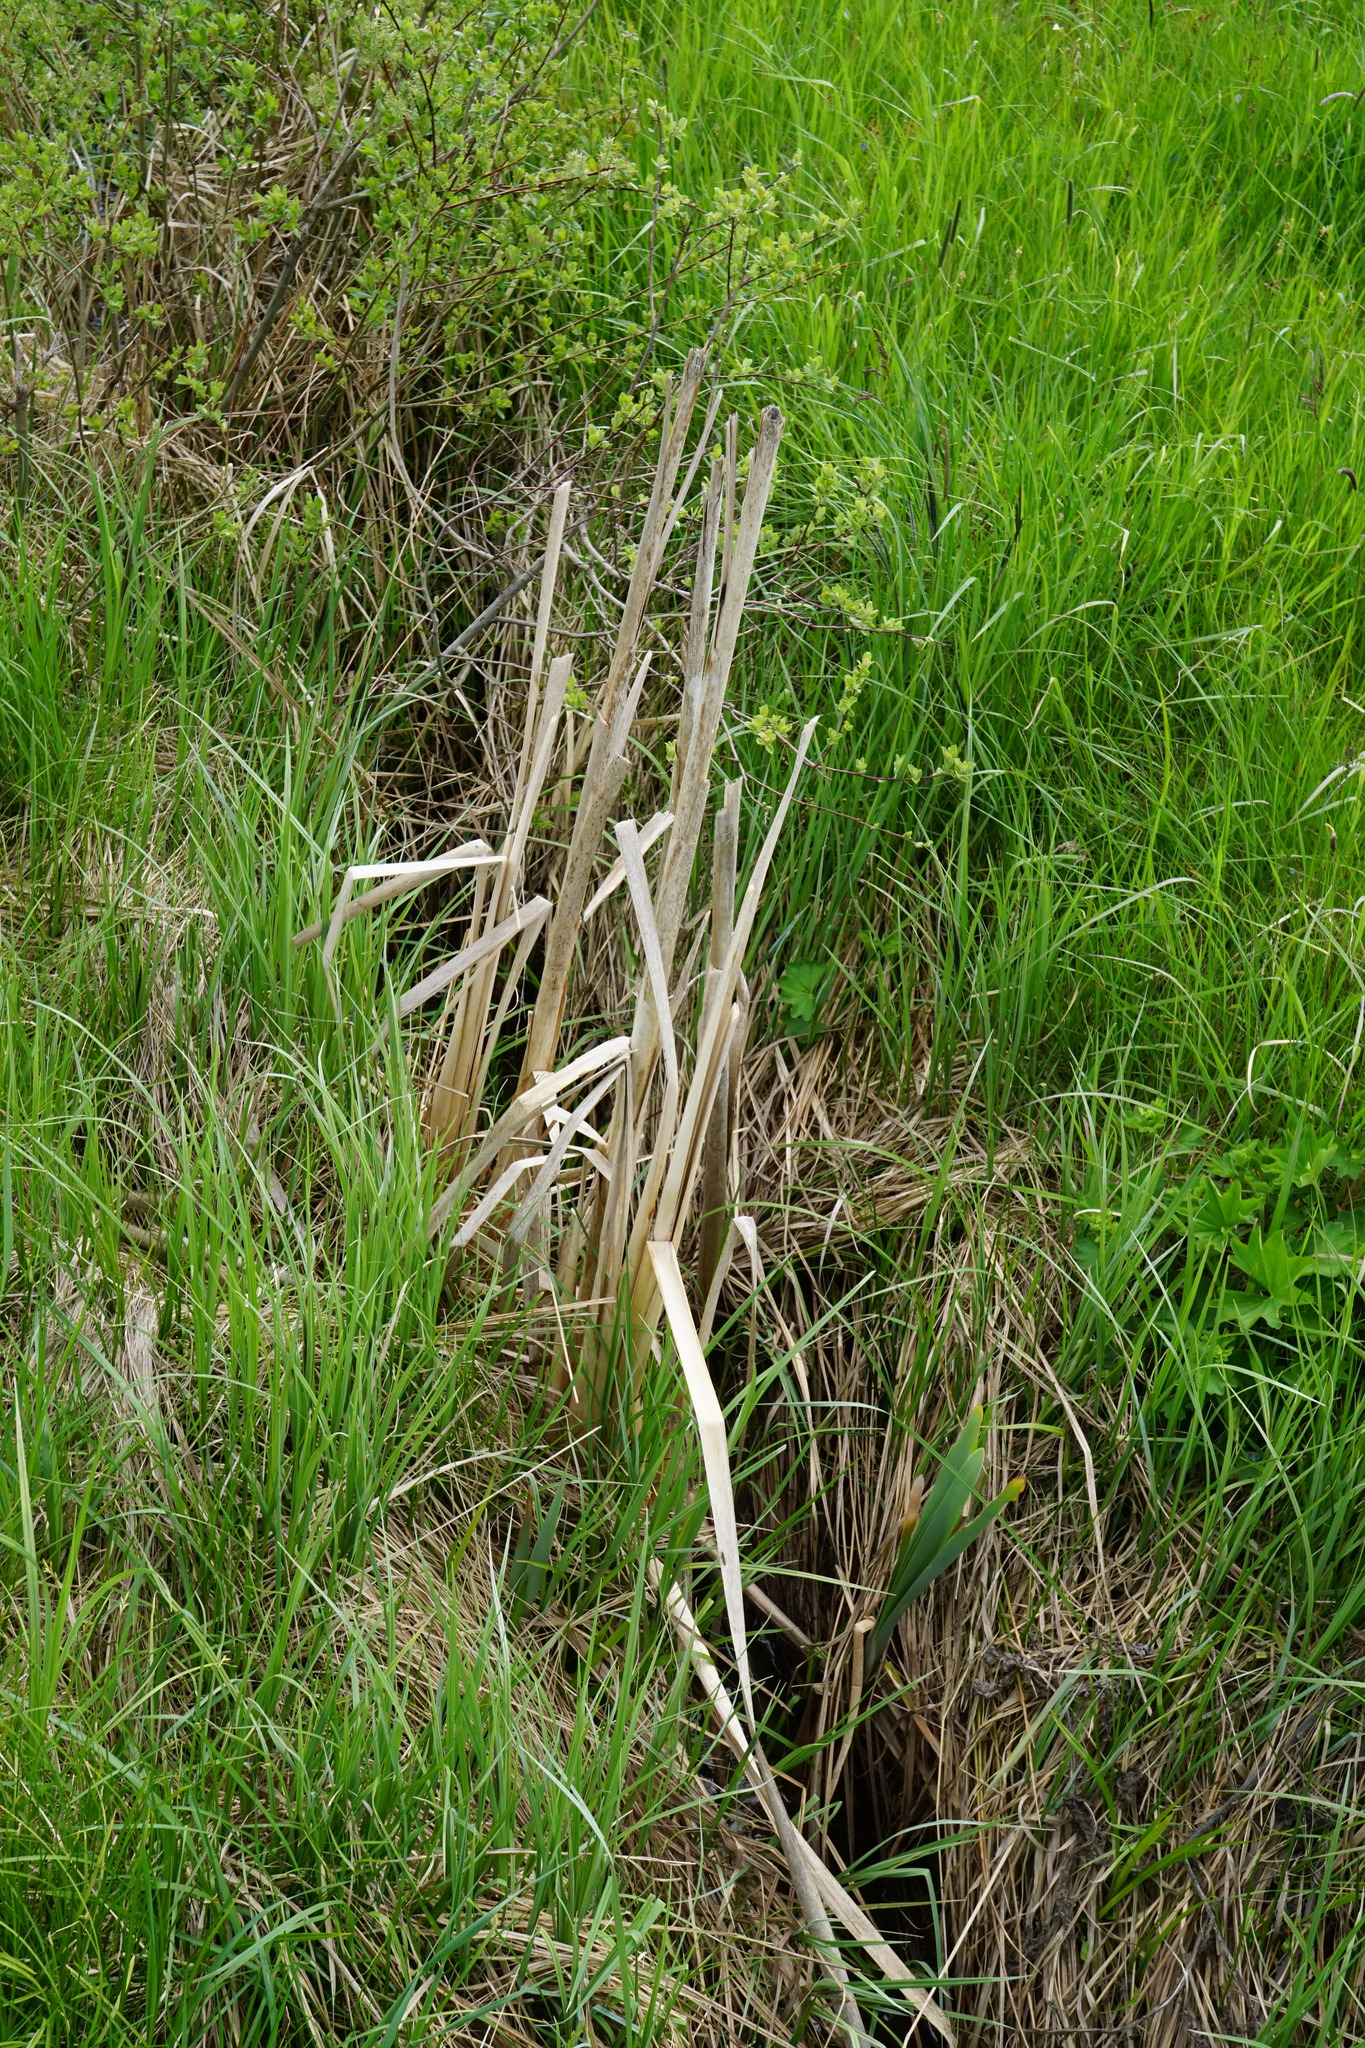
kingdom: Plantae
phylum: Tracheophyta
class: Liliopsida
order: Poales
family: Typhaceae
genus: Typha
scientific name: Typha latifolia
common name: Broadleaf cattail
